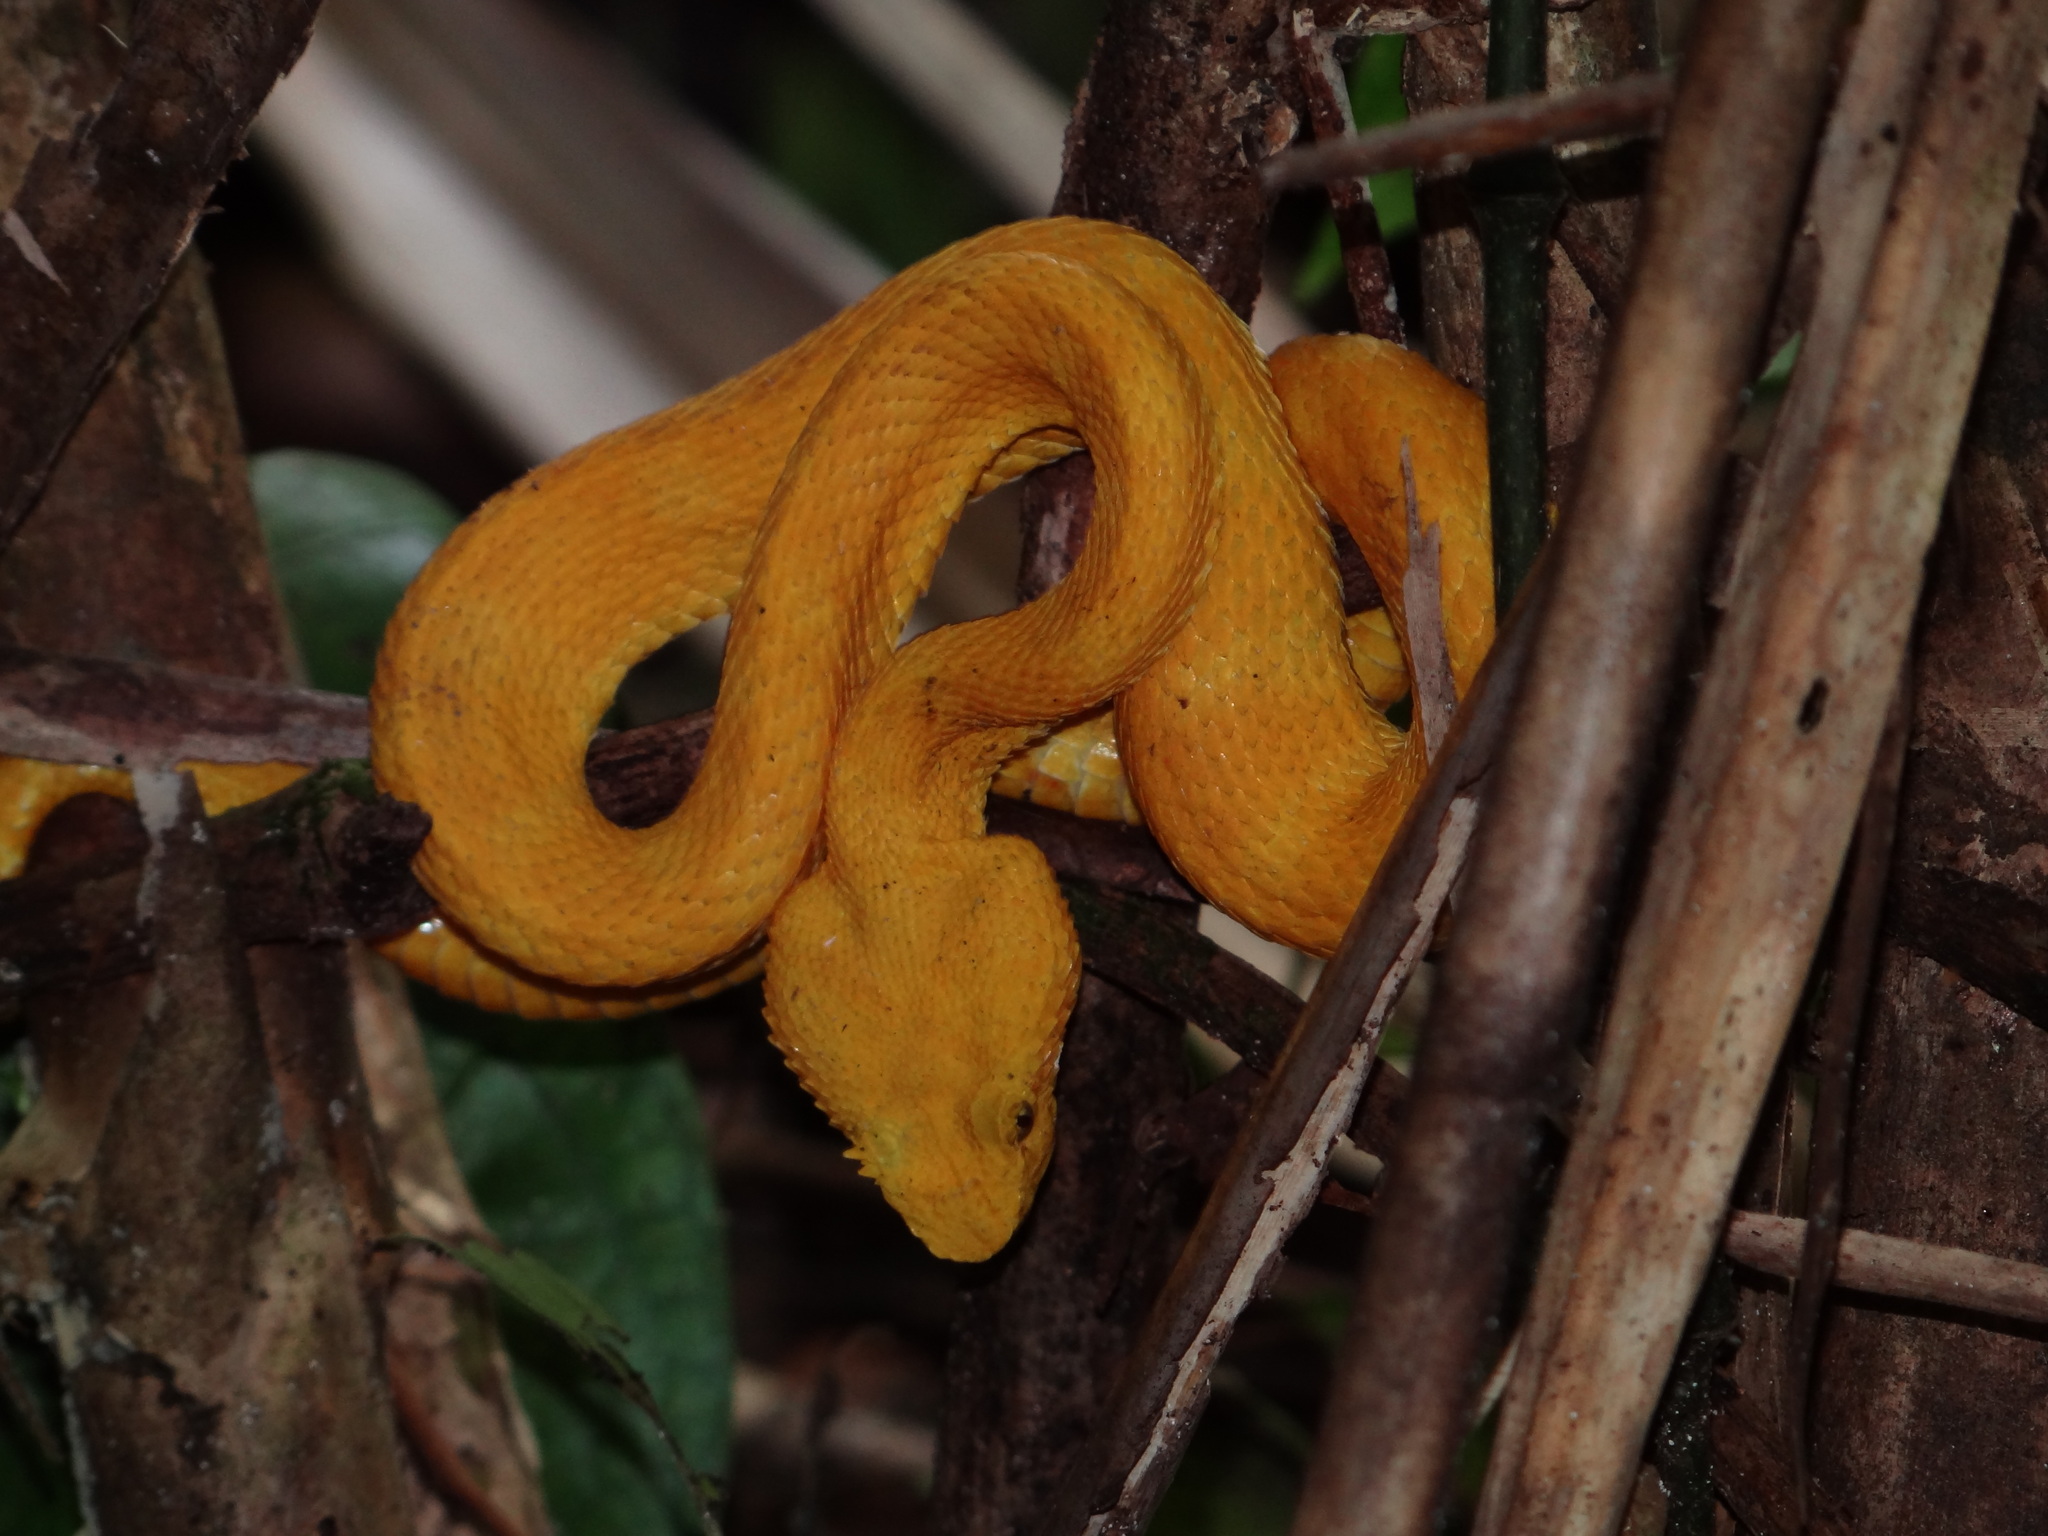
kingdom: Animalia
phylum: Chordata
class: Squamata
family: Viperidae
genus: Bothriechis
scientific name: Bothriechis schlegelii
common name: Eyelash viper
